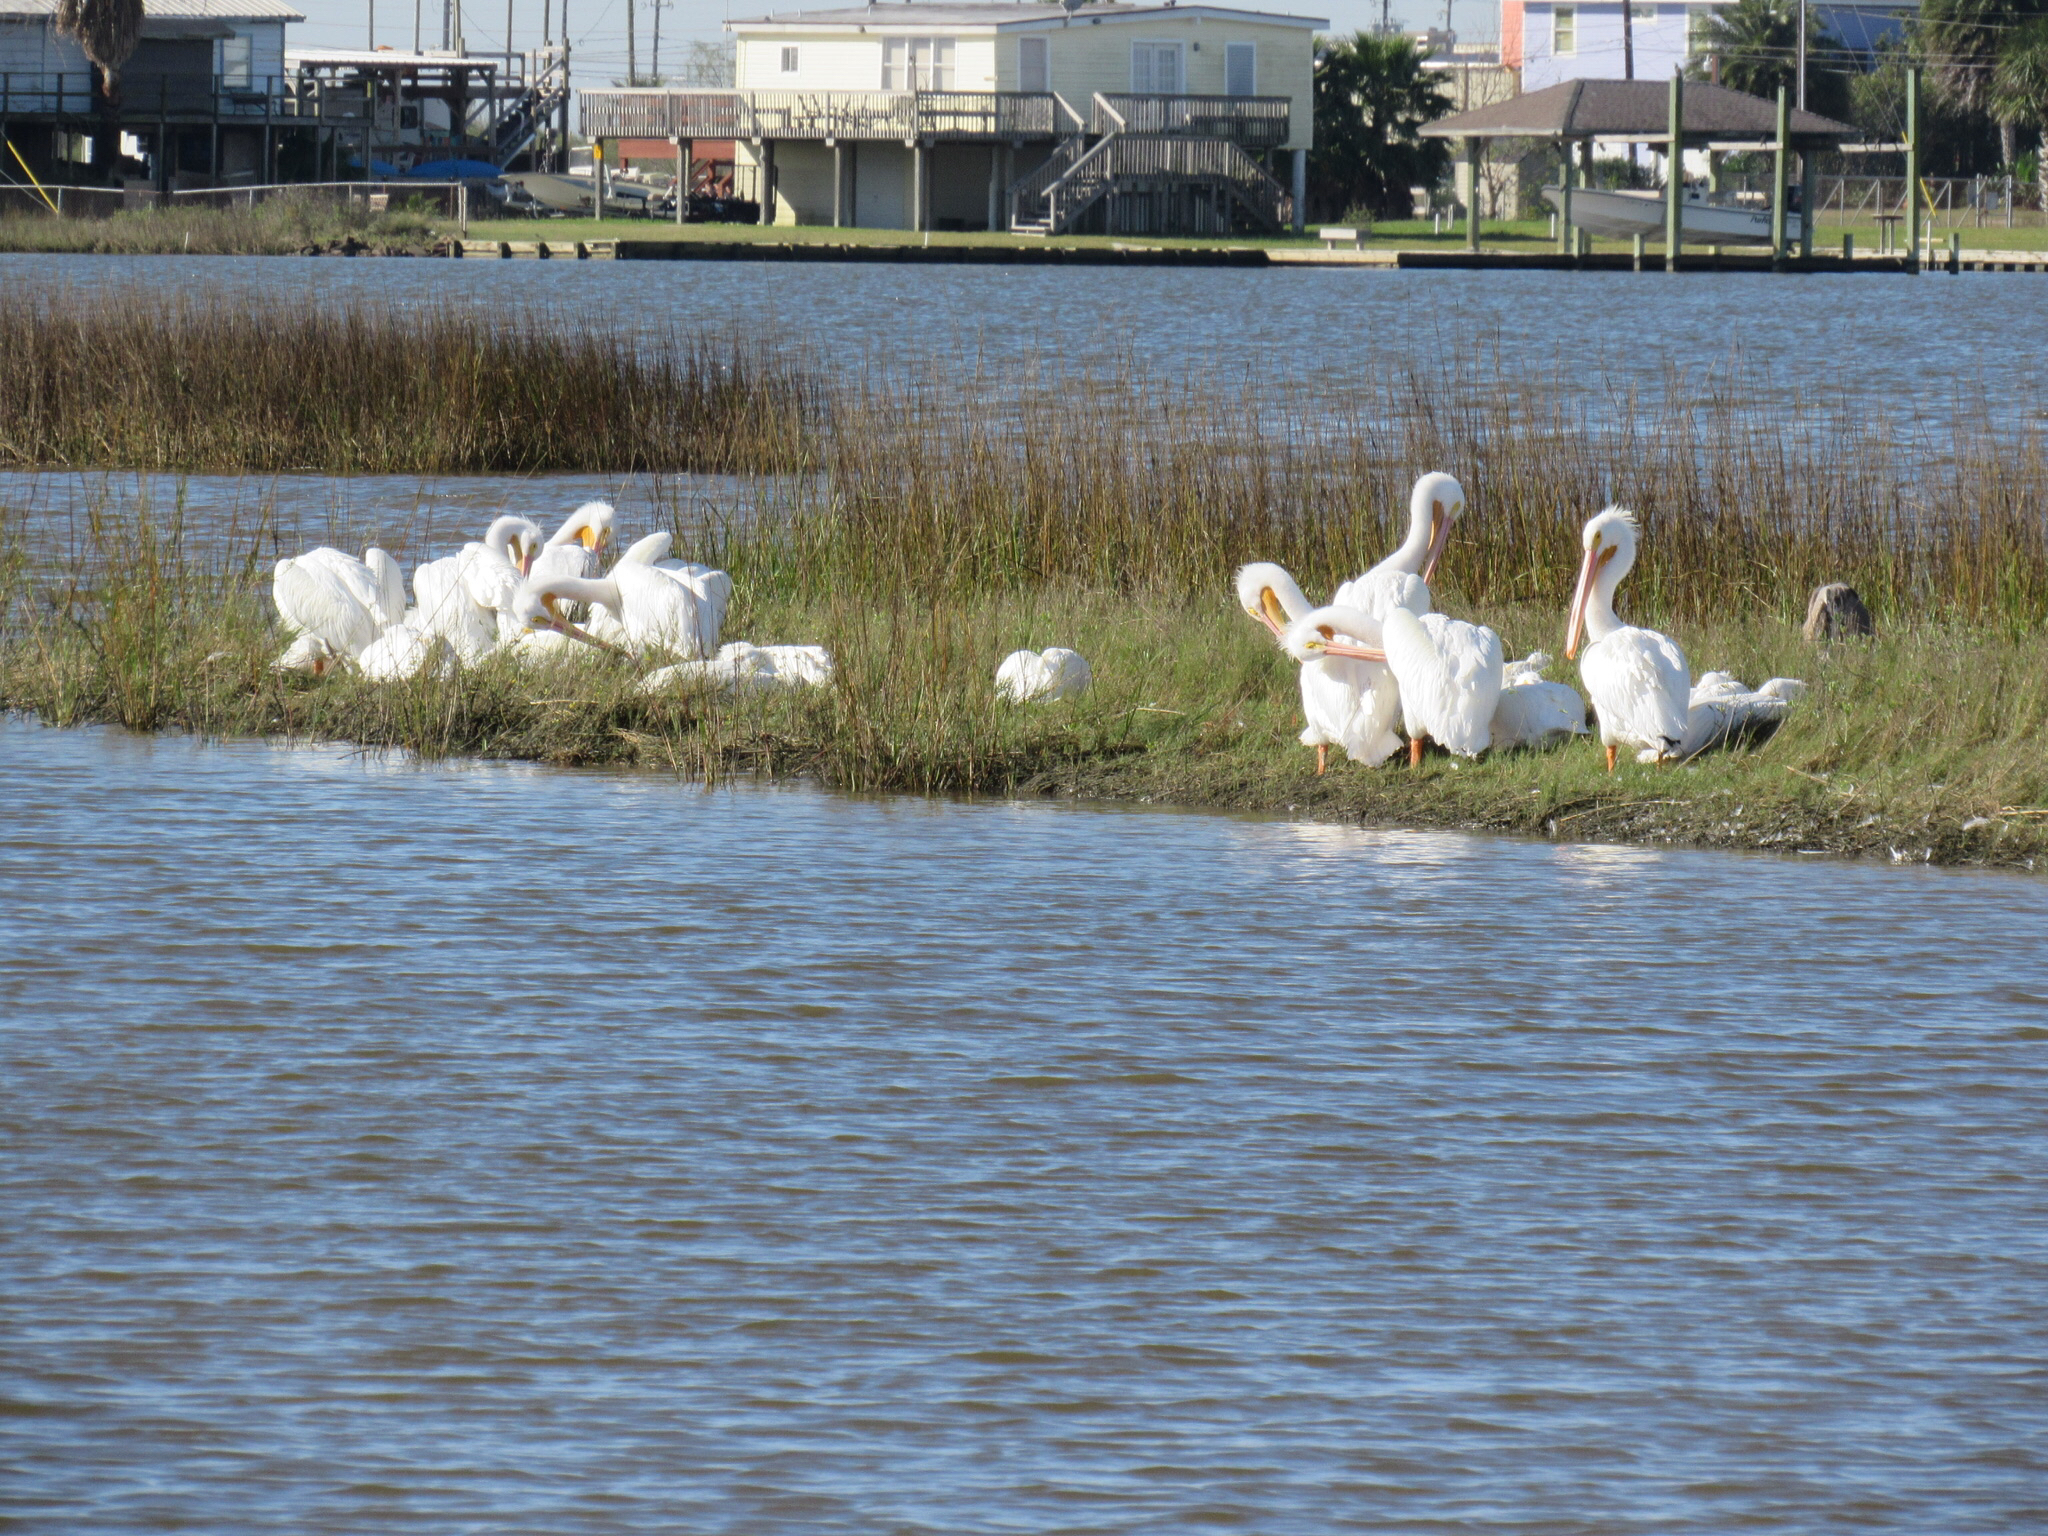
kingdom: Animalia
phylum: Chordata
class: Aves
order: Pelecaniformes
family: Pelecanidae
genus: Pelecanus
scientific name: Pelecanus erythrorhynchos
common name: American white pelican
